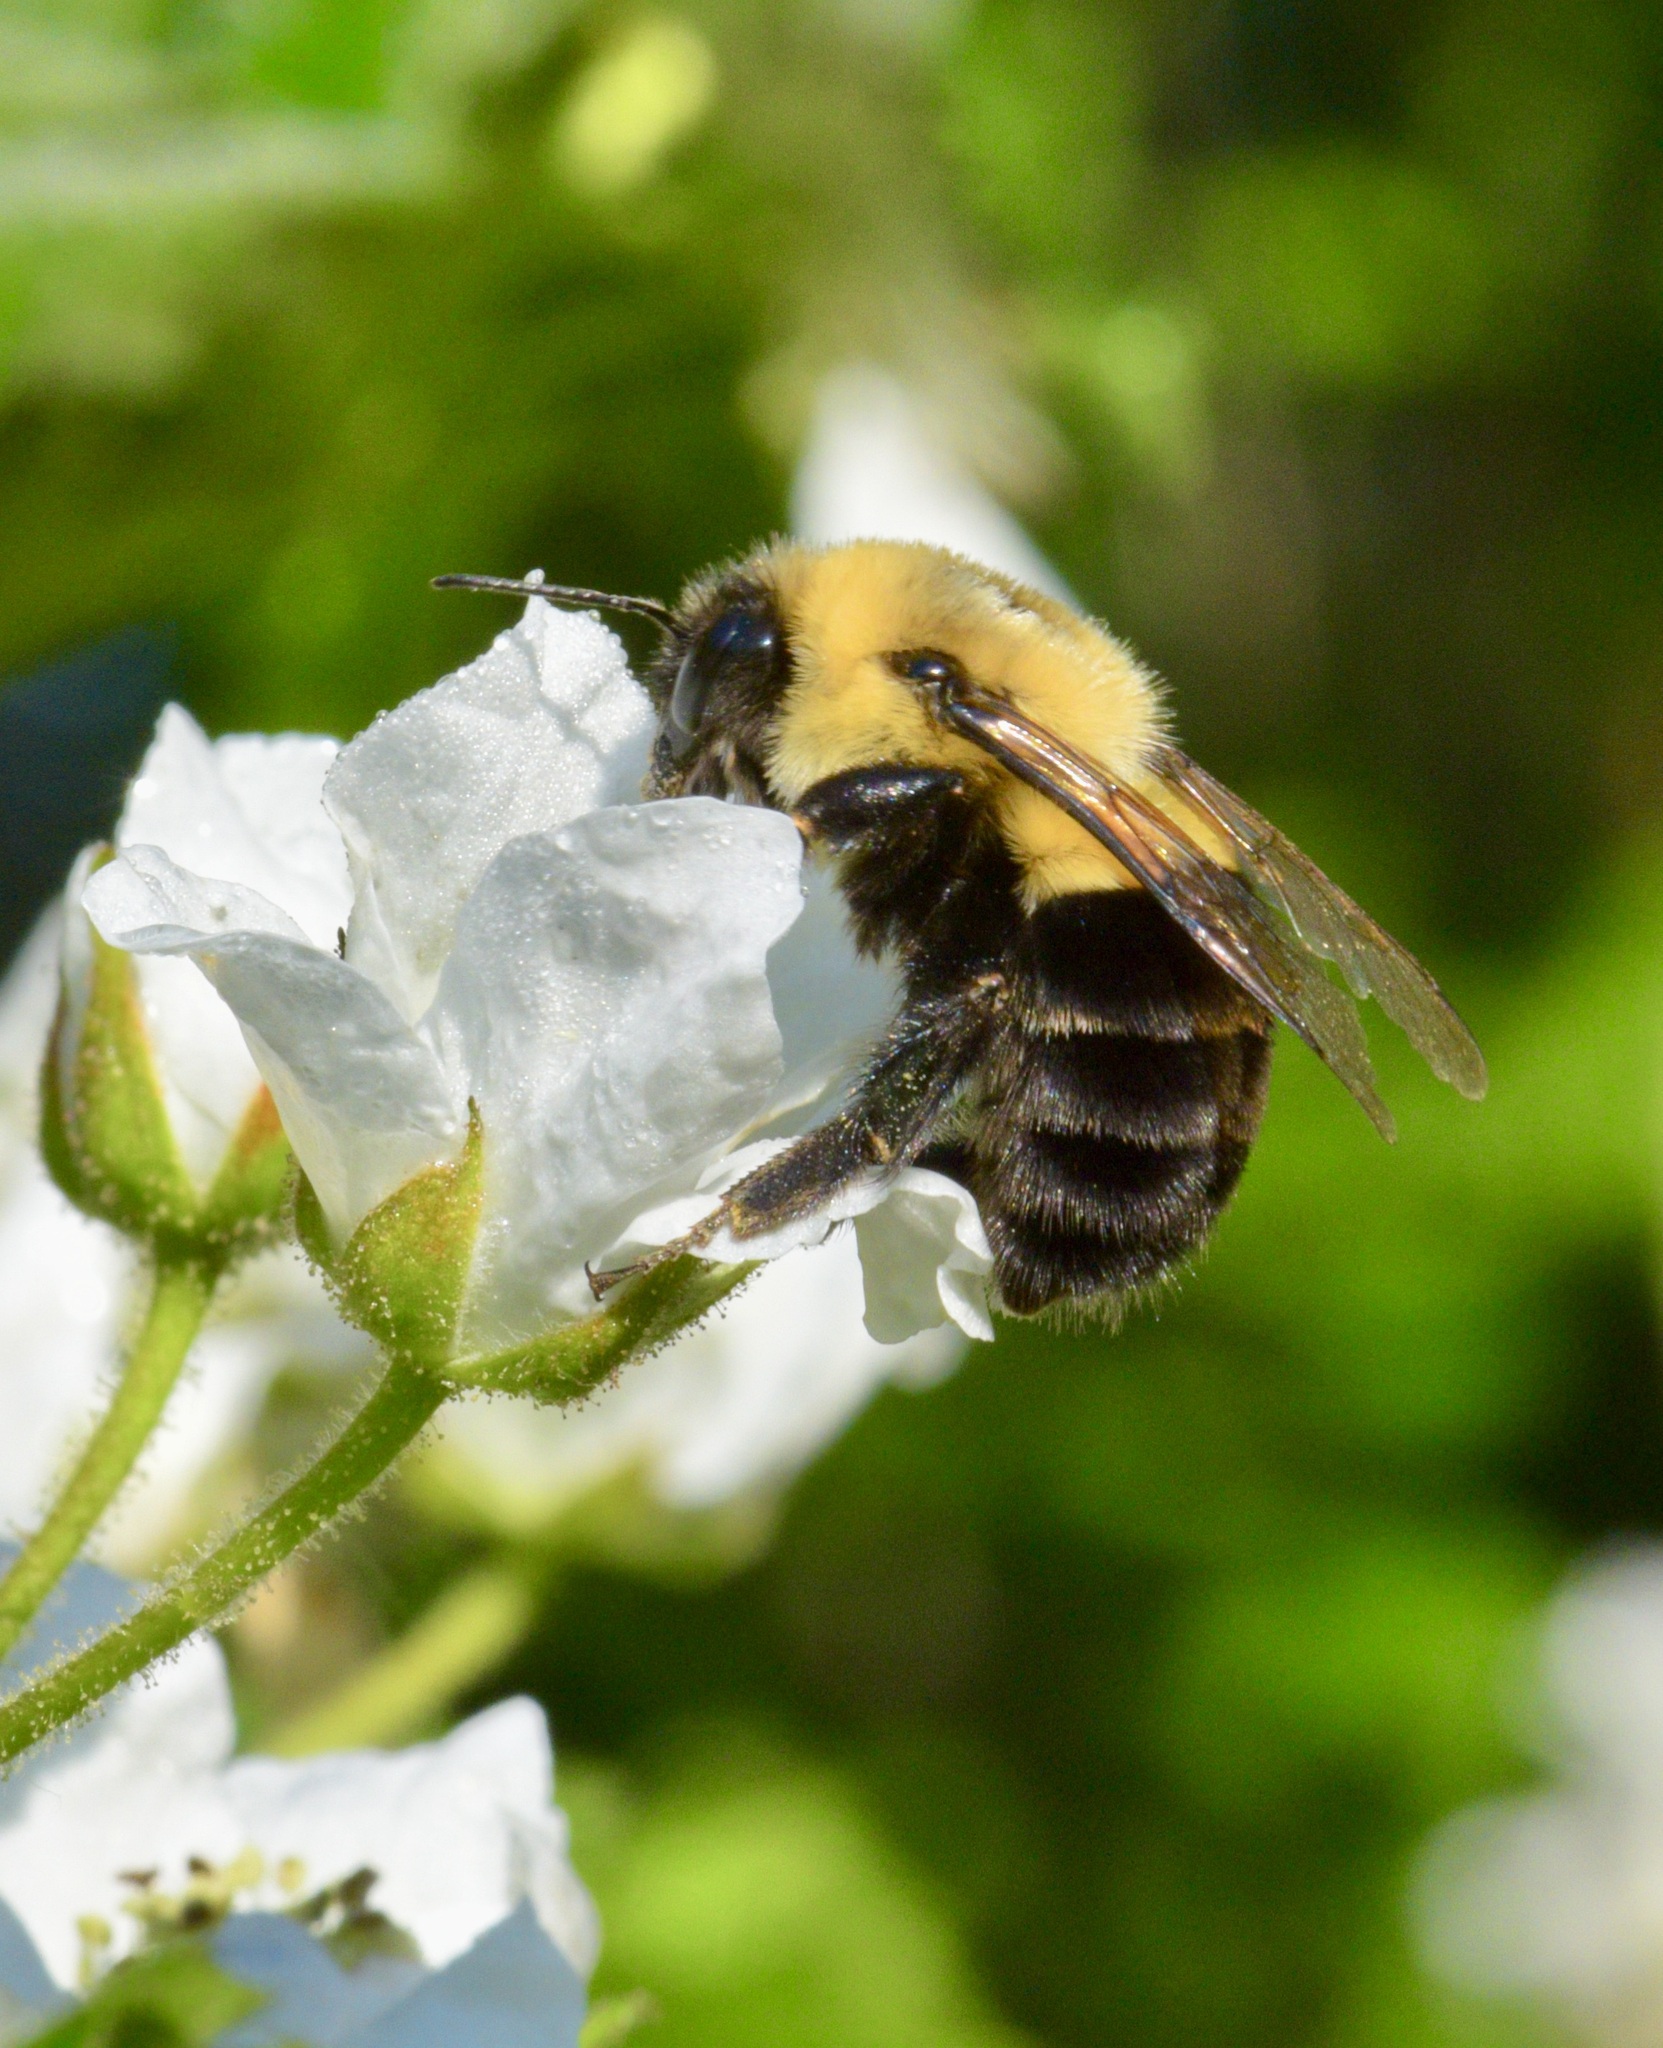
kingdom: Animalia
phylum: Arthropoda
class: Insecta
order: Hymenoptera
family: Apidae
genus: Bombus
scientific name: Bombus impatiens
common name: Common eastern bumble bee
